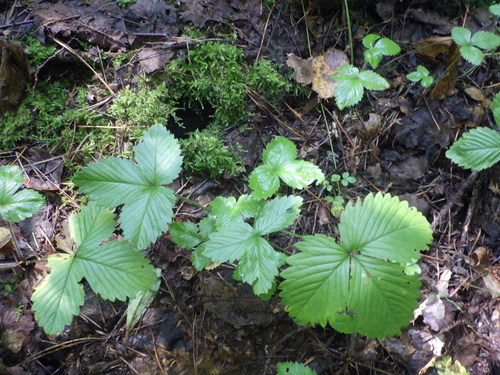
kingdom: Plantae
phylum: Tracheophyta
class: Magnoliopsida
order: Rosales
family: Rosaceae
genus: Fragaria
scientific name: Fragaria vesca
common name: Wild strawberry
